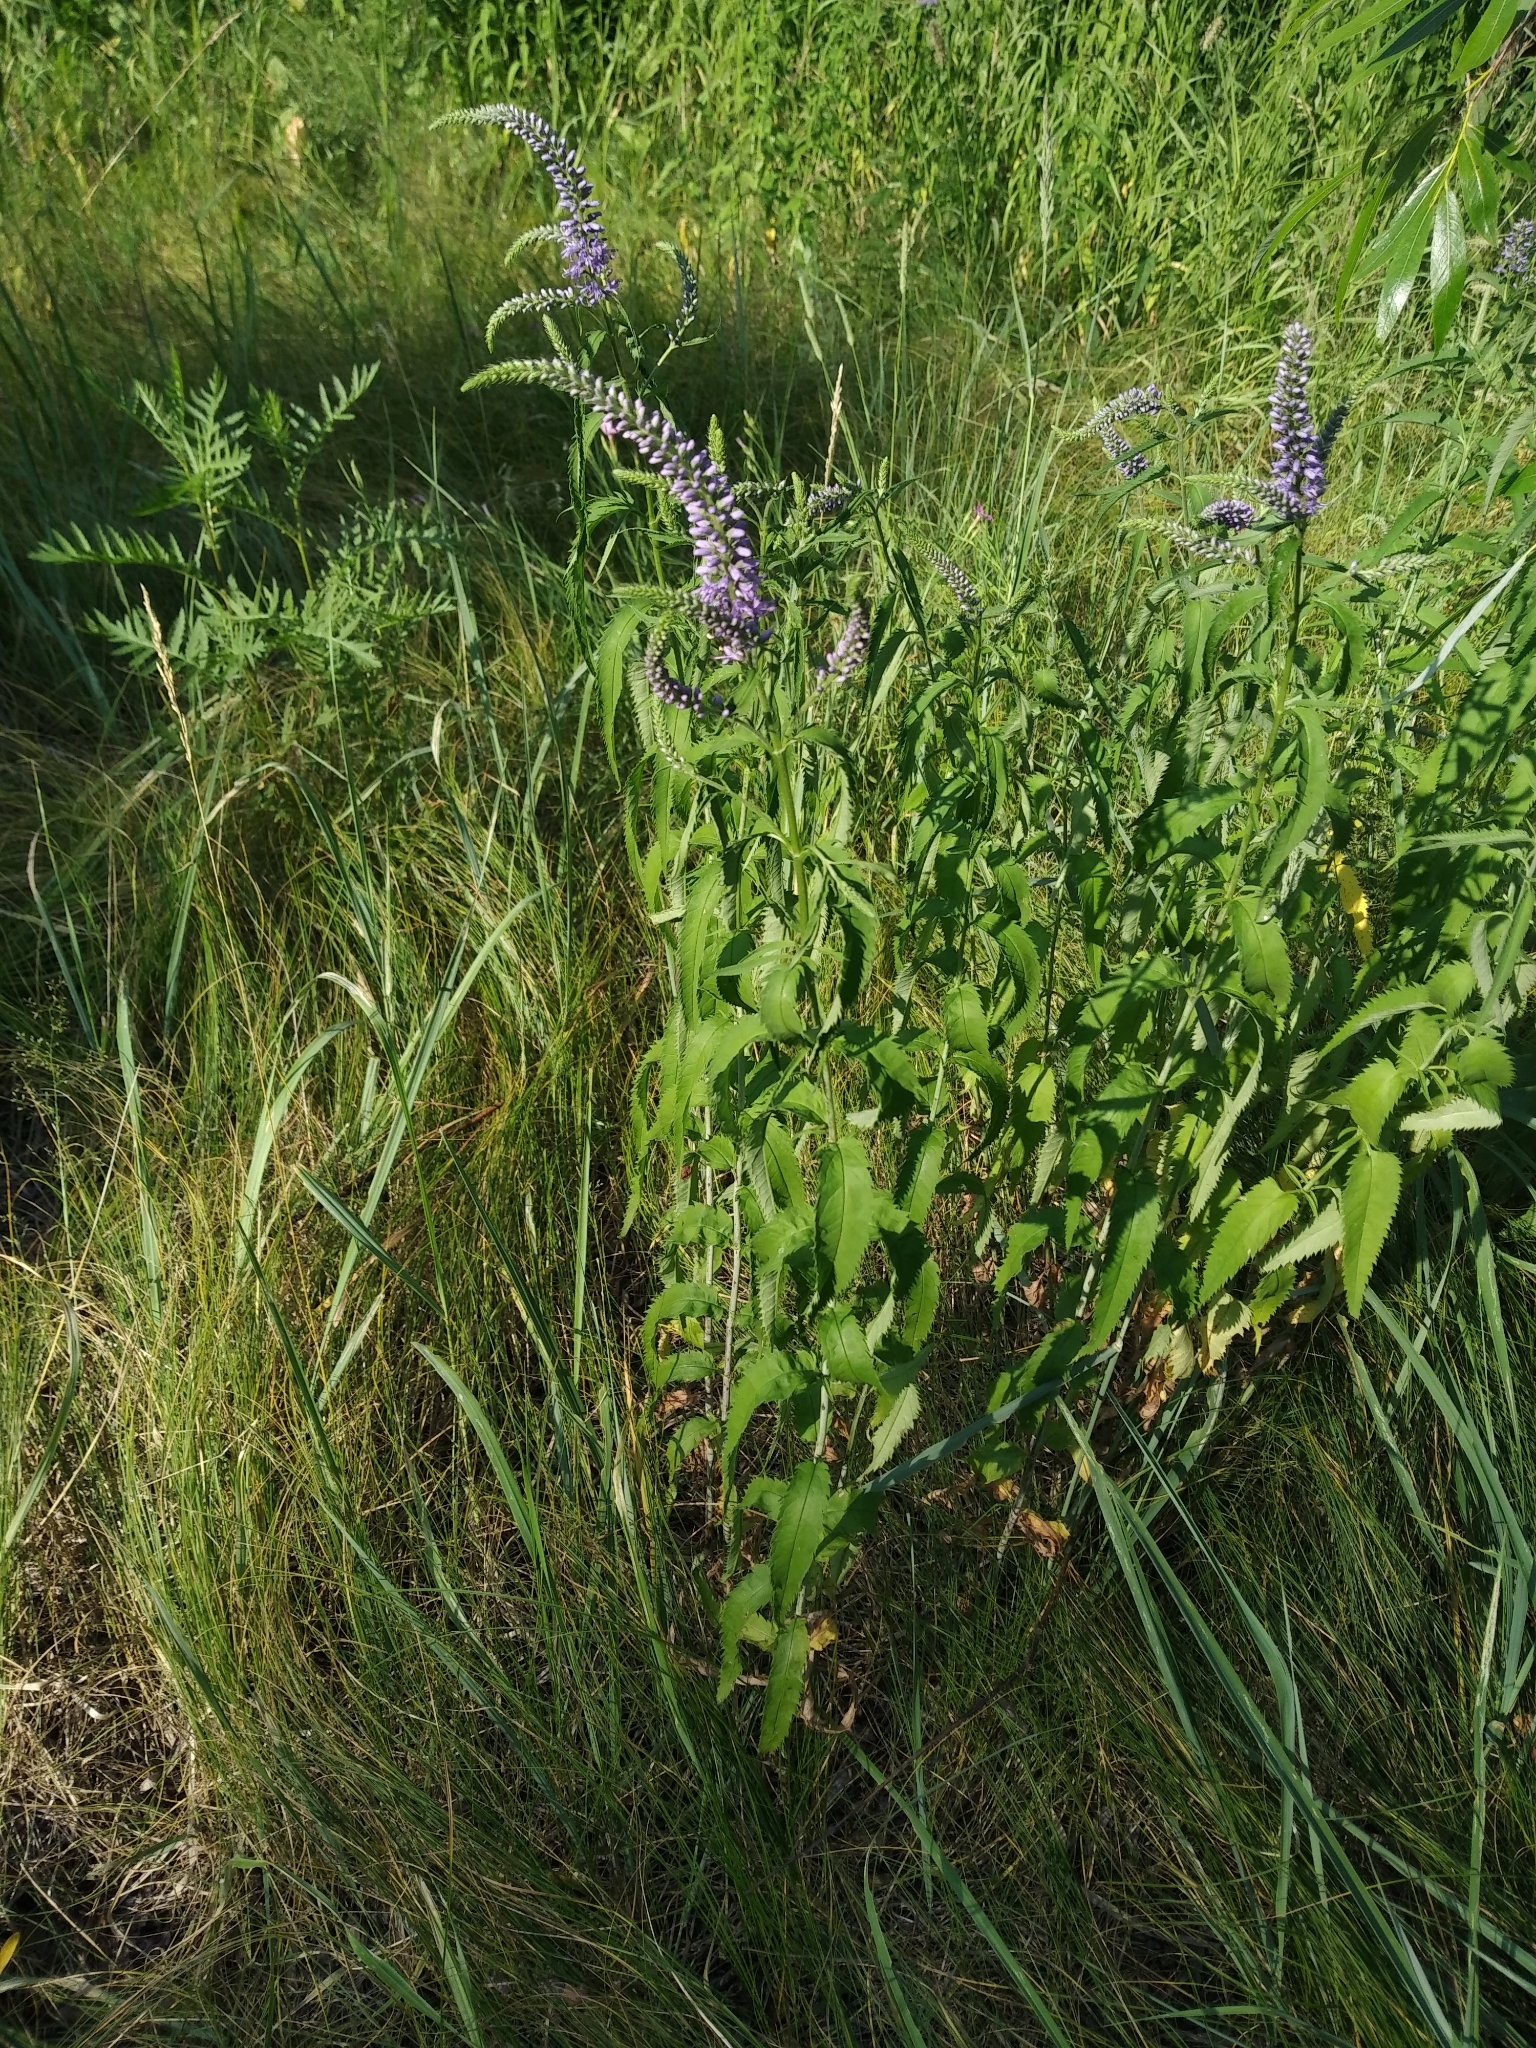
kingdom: Plantae
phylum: Tracheophyta
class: Magnoliopsida
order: Lamiales
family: Plantaginaceae
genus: Veronica
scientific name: Veronica longifolia
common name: Garden speedwell
